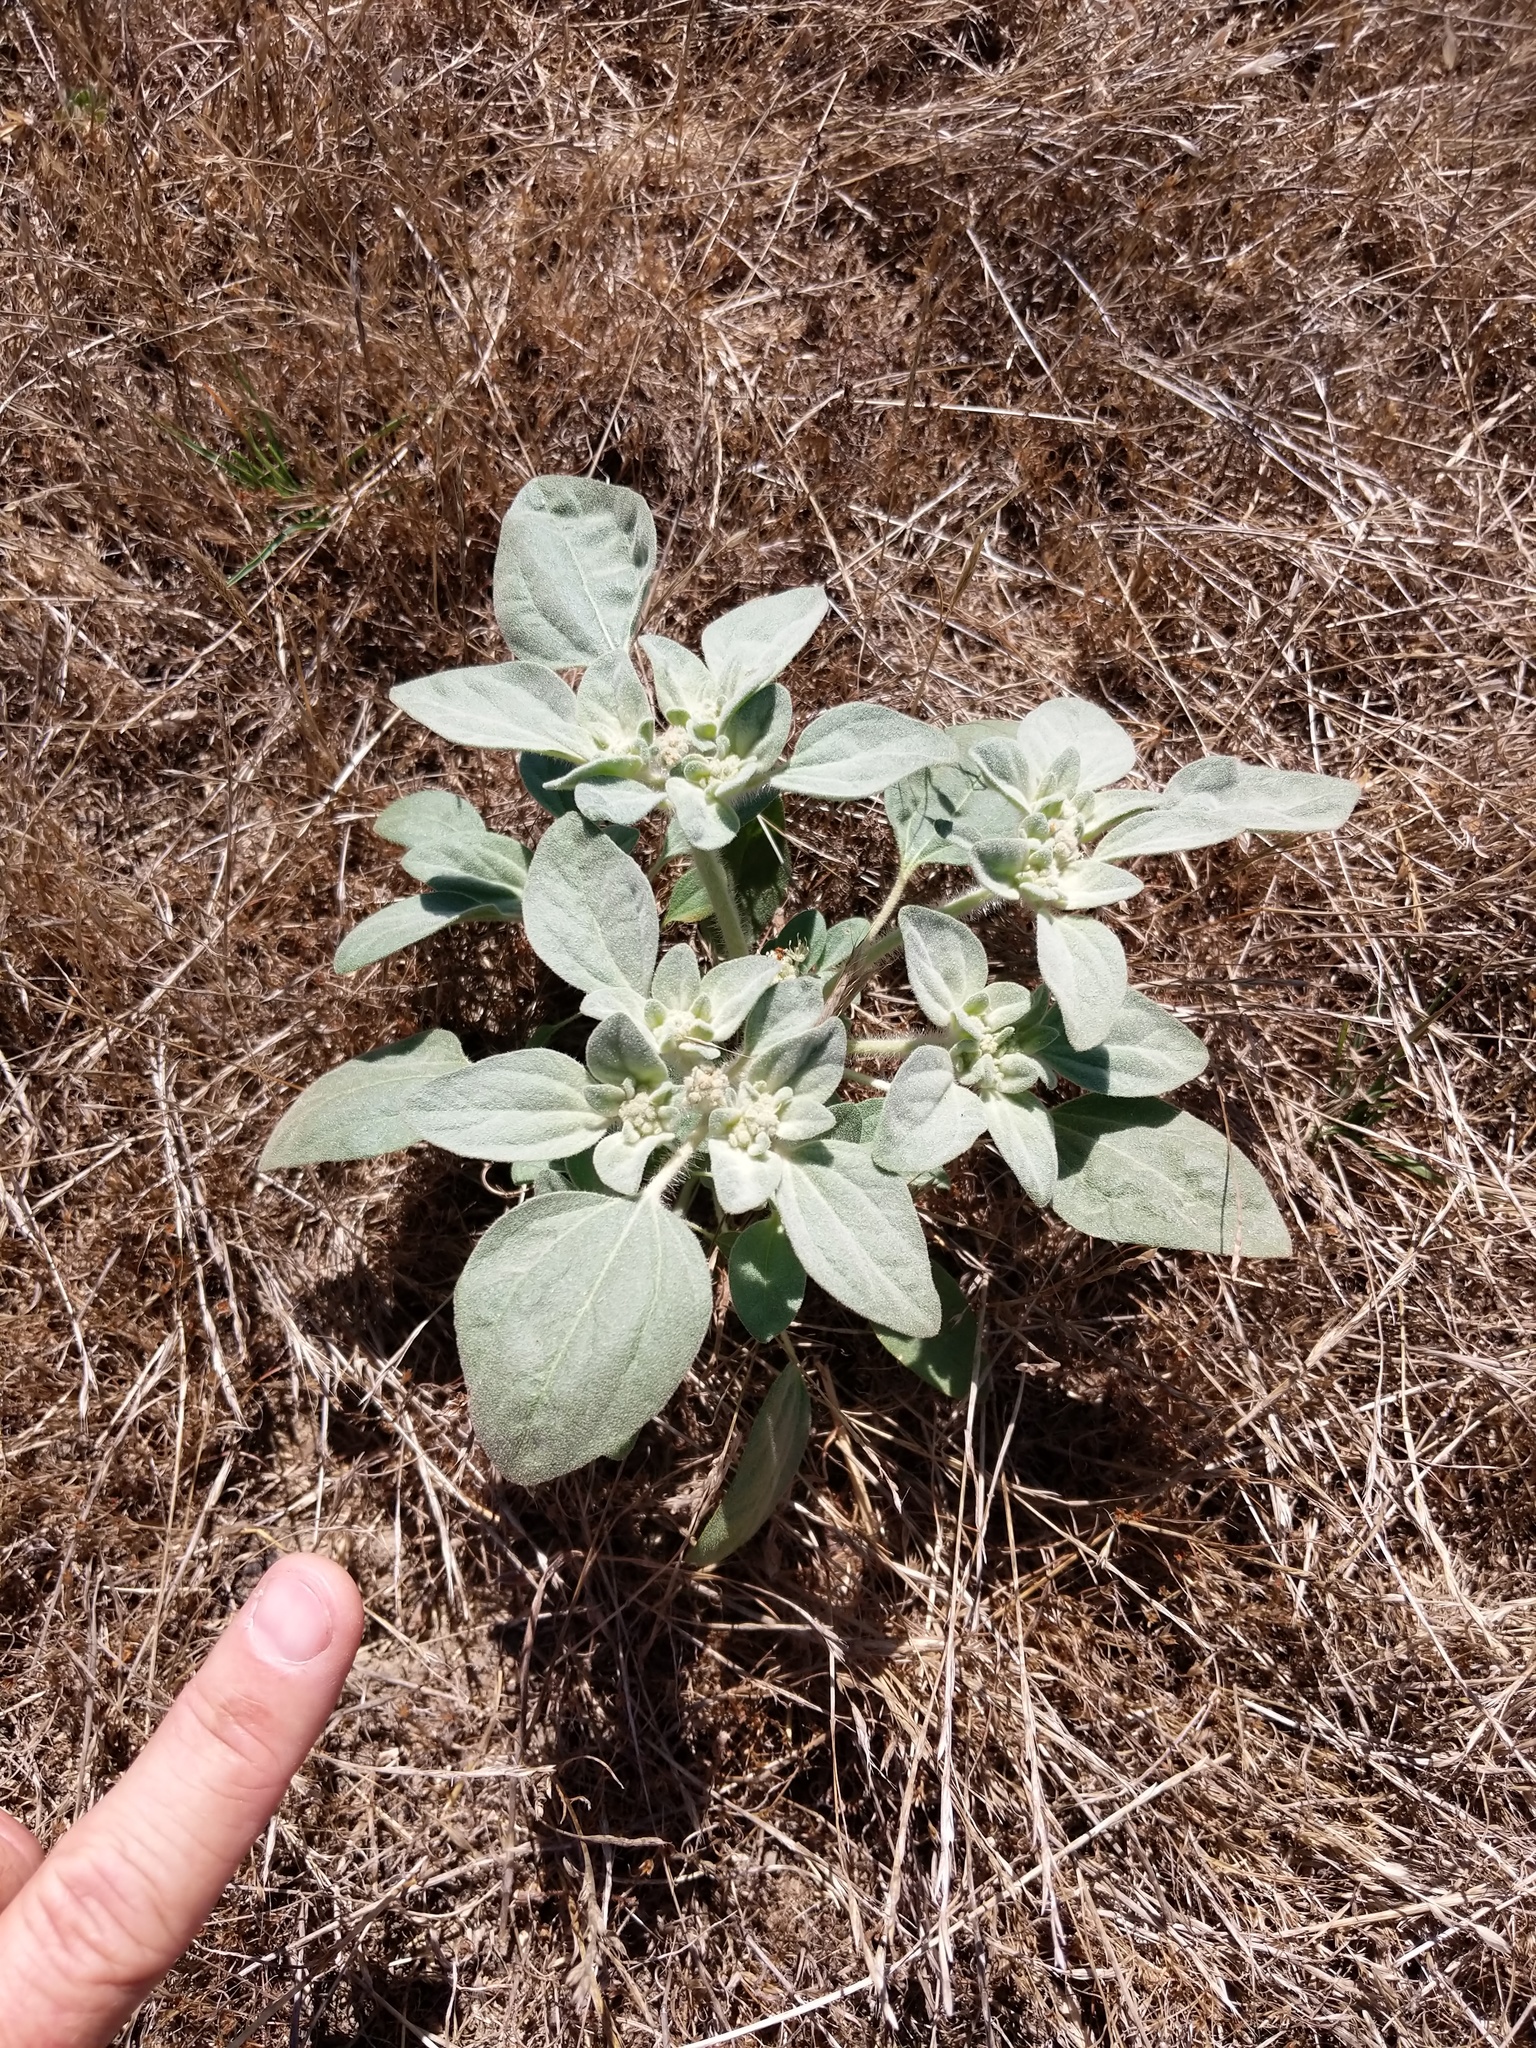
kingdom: Plantae
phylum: Tracheophyta
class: Magnoliopsida
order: Malpighiales
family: Euphorbiaceae
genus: Croton
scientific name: Croton setiger
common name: Dove weed
